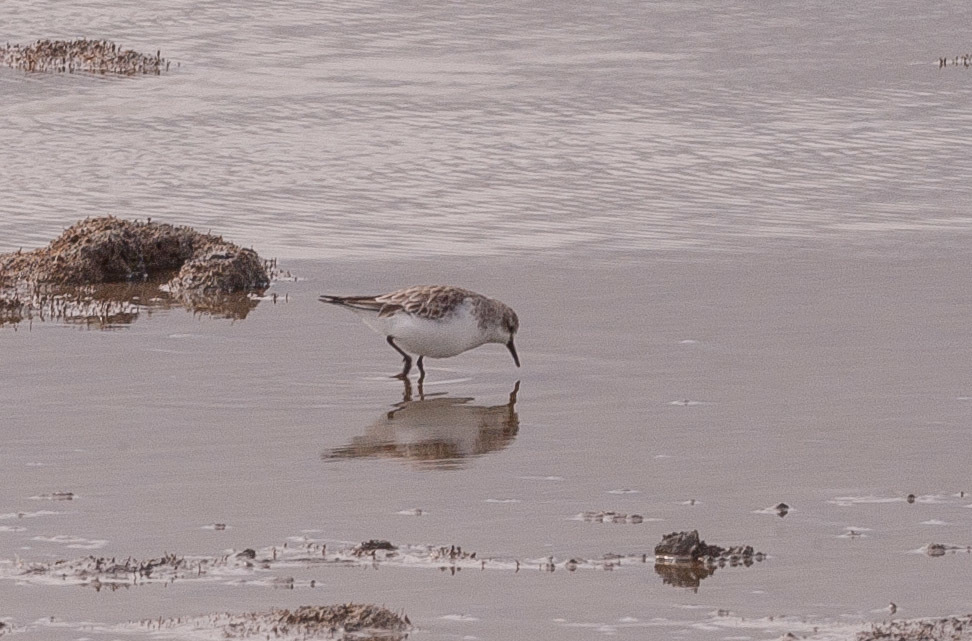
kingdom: Animalia
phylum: Chordata
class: Aves
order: Charadriiformes
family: Scolopacidae
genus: Calidris
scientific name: Calidris ruficollis
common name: Red-necked stint
